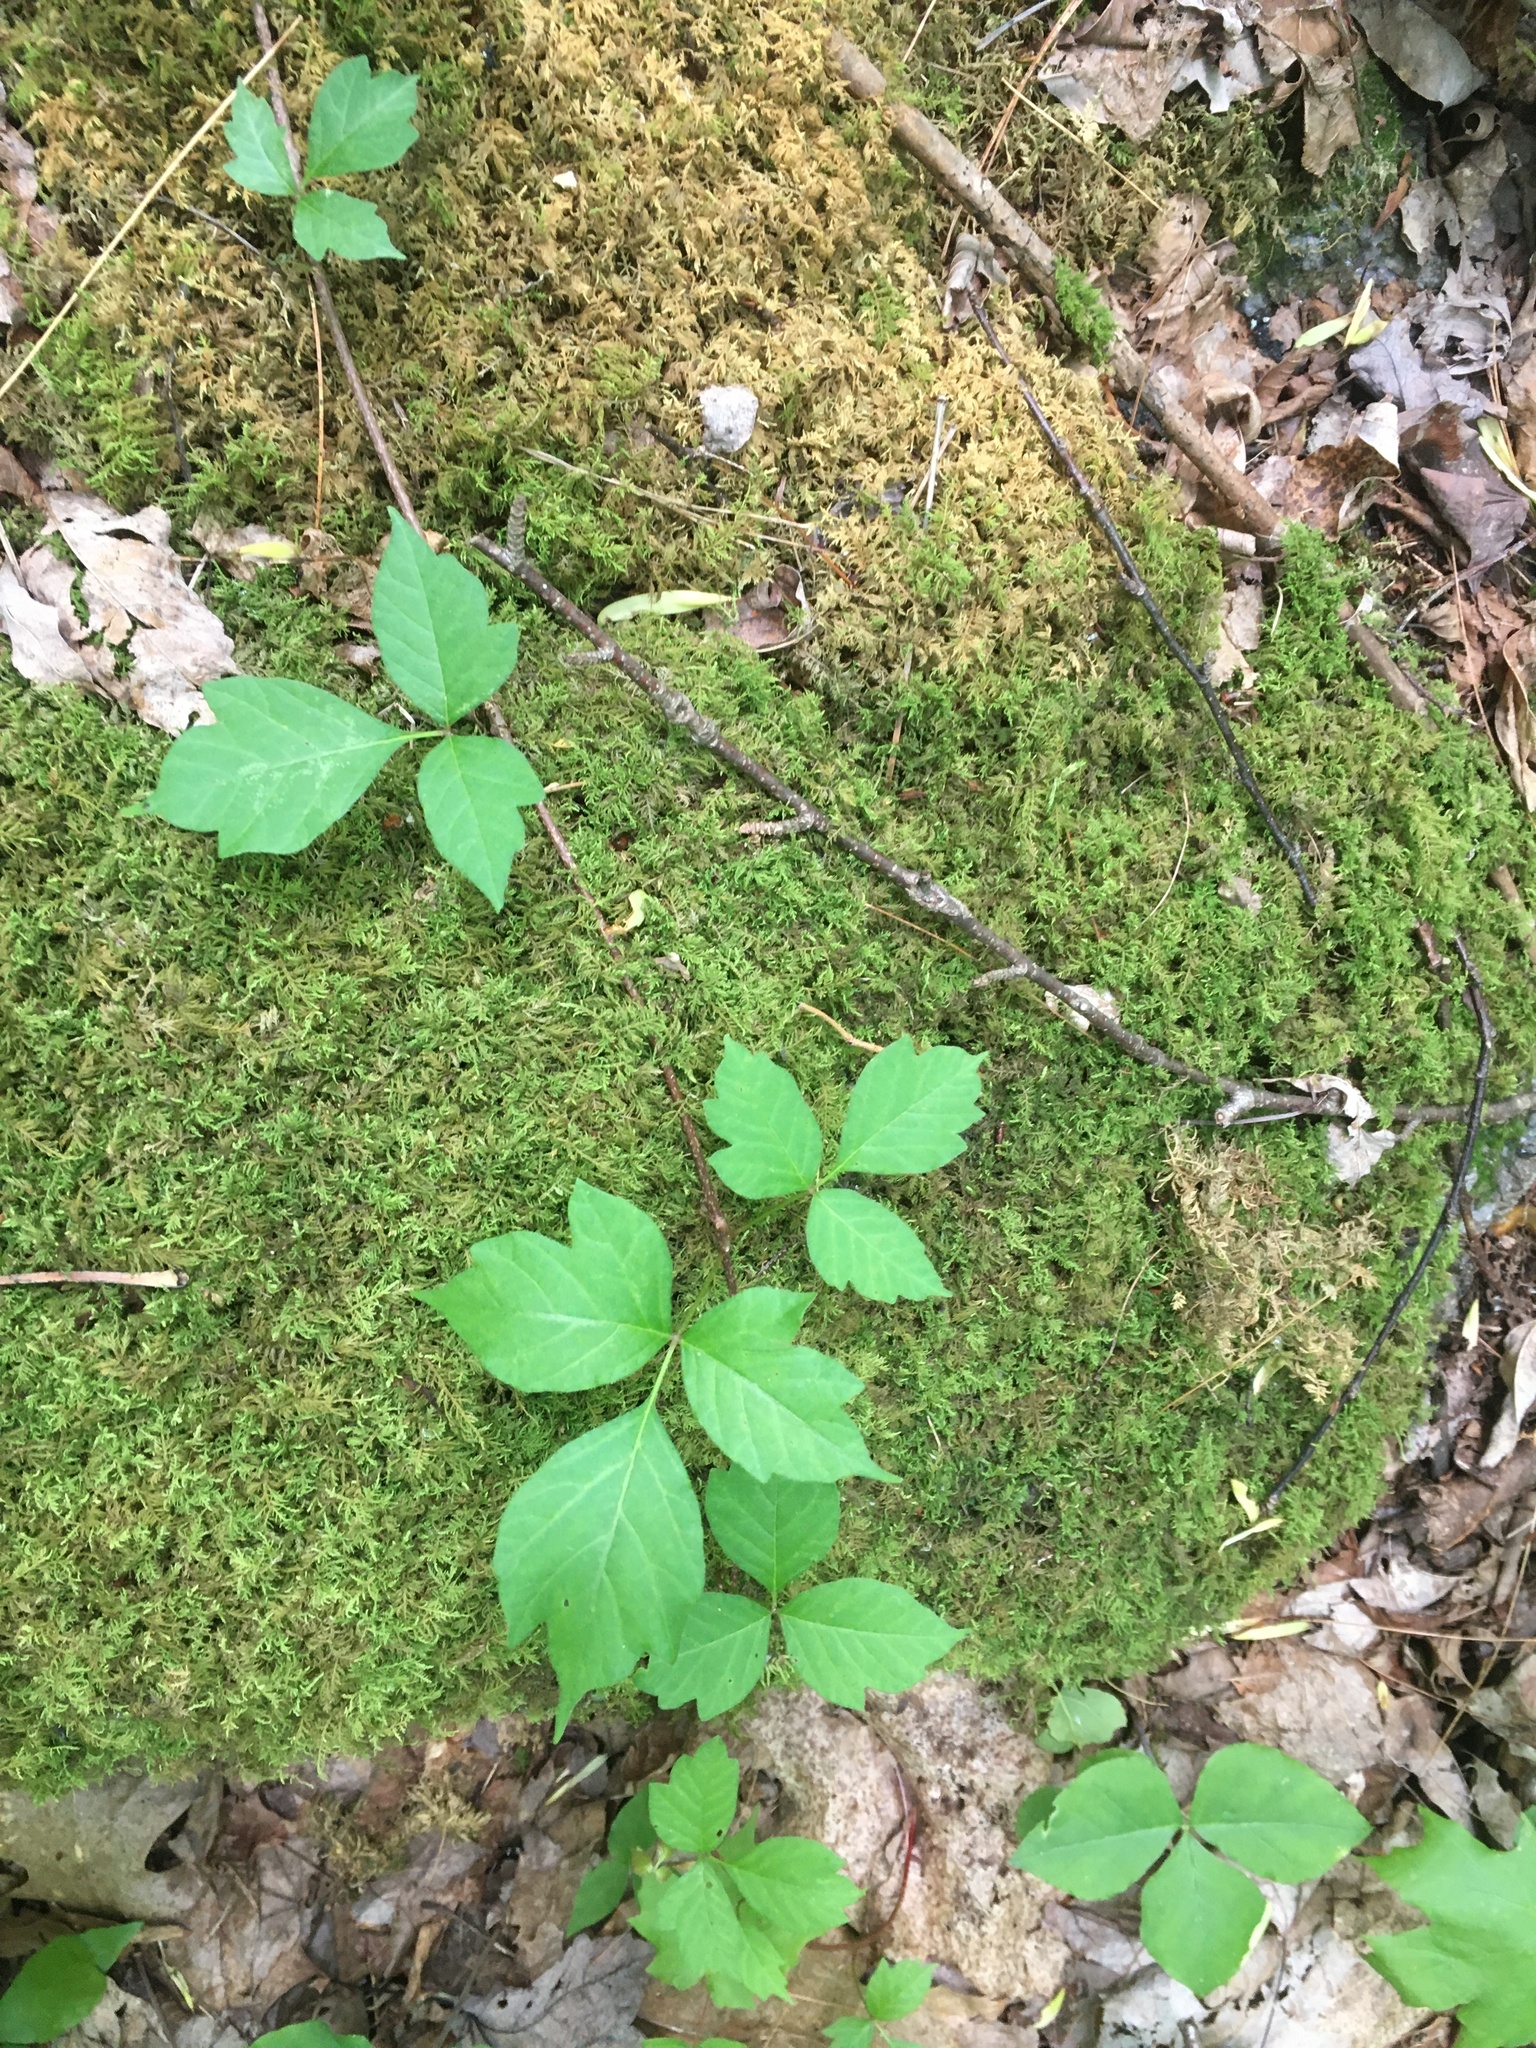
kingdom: Plantae
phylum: Tracheophyta
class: Magnoliopsida
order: Sapindales
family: Anacardiaceae
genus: Toxicodendron
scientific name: Toxicodendron radicans
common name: Poison ivy
